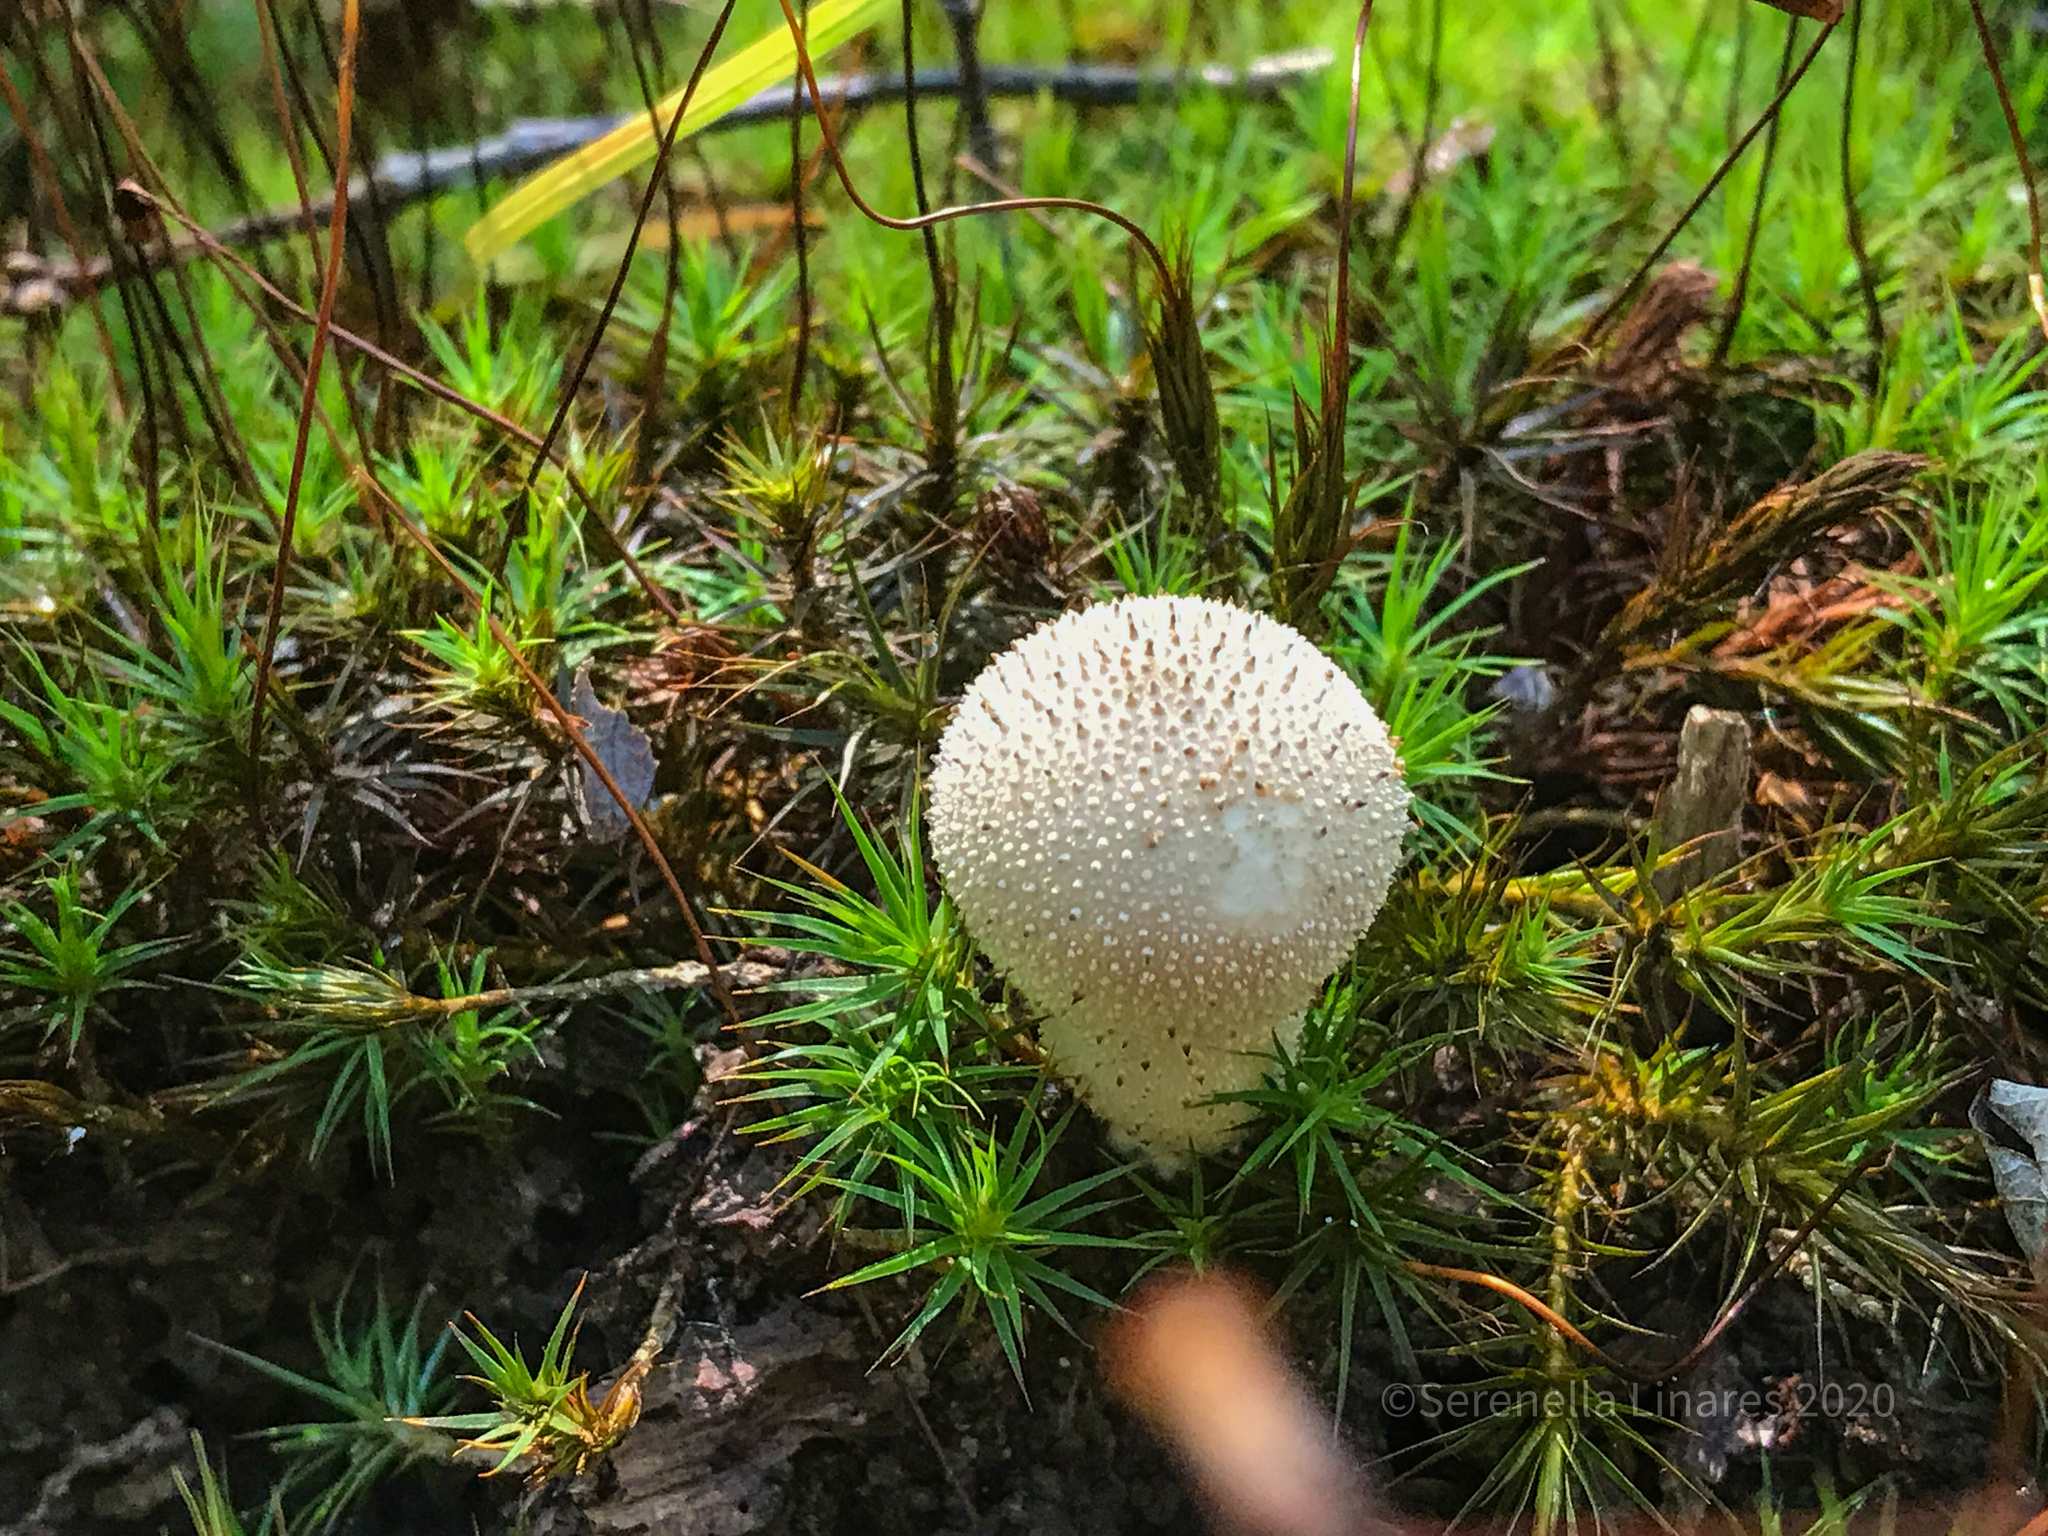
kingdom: Fungi
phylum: Basidiomycota
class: Agaricomycetes
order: Agaricales
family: Lycoperdaceae
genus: Lycoperdon
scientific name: Lycoperdon perlatum
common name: Common puffball
